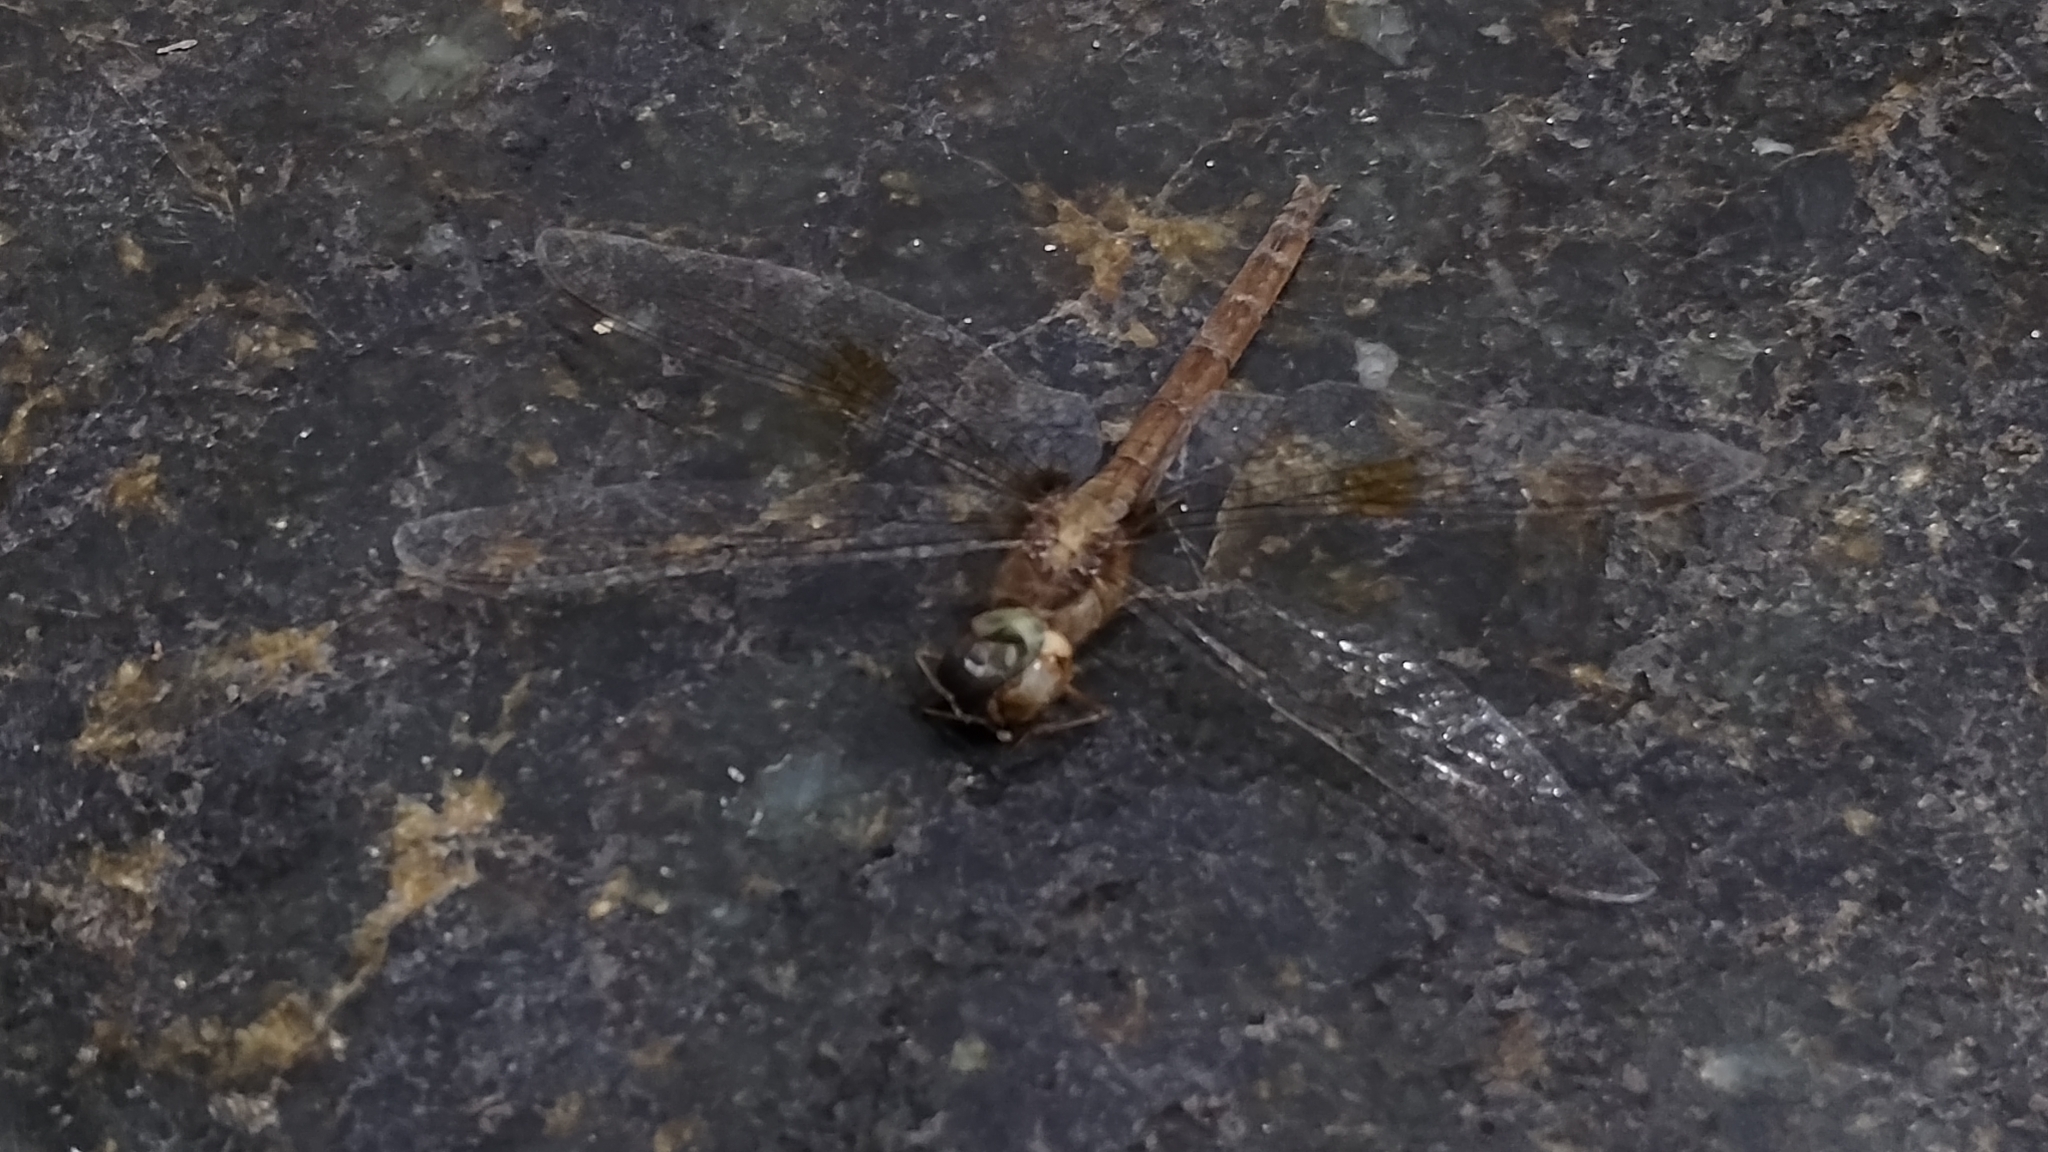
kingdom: Animalia
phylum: Arthropoda
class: Insecta
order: Odonata
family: Libellulidae
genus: Tholymis
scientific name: Tholymis citrina
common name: Evening skimmer
